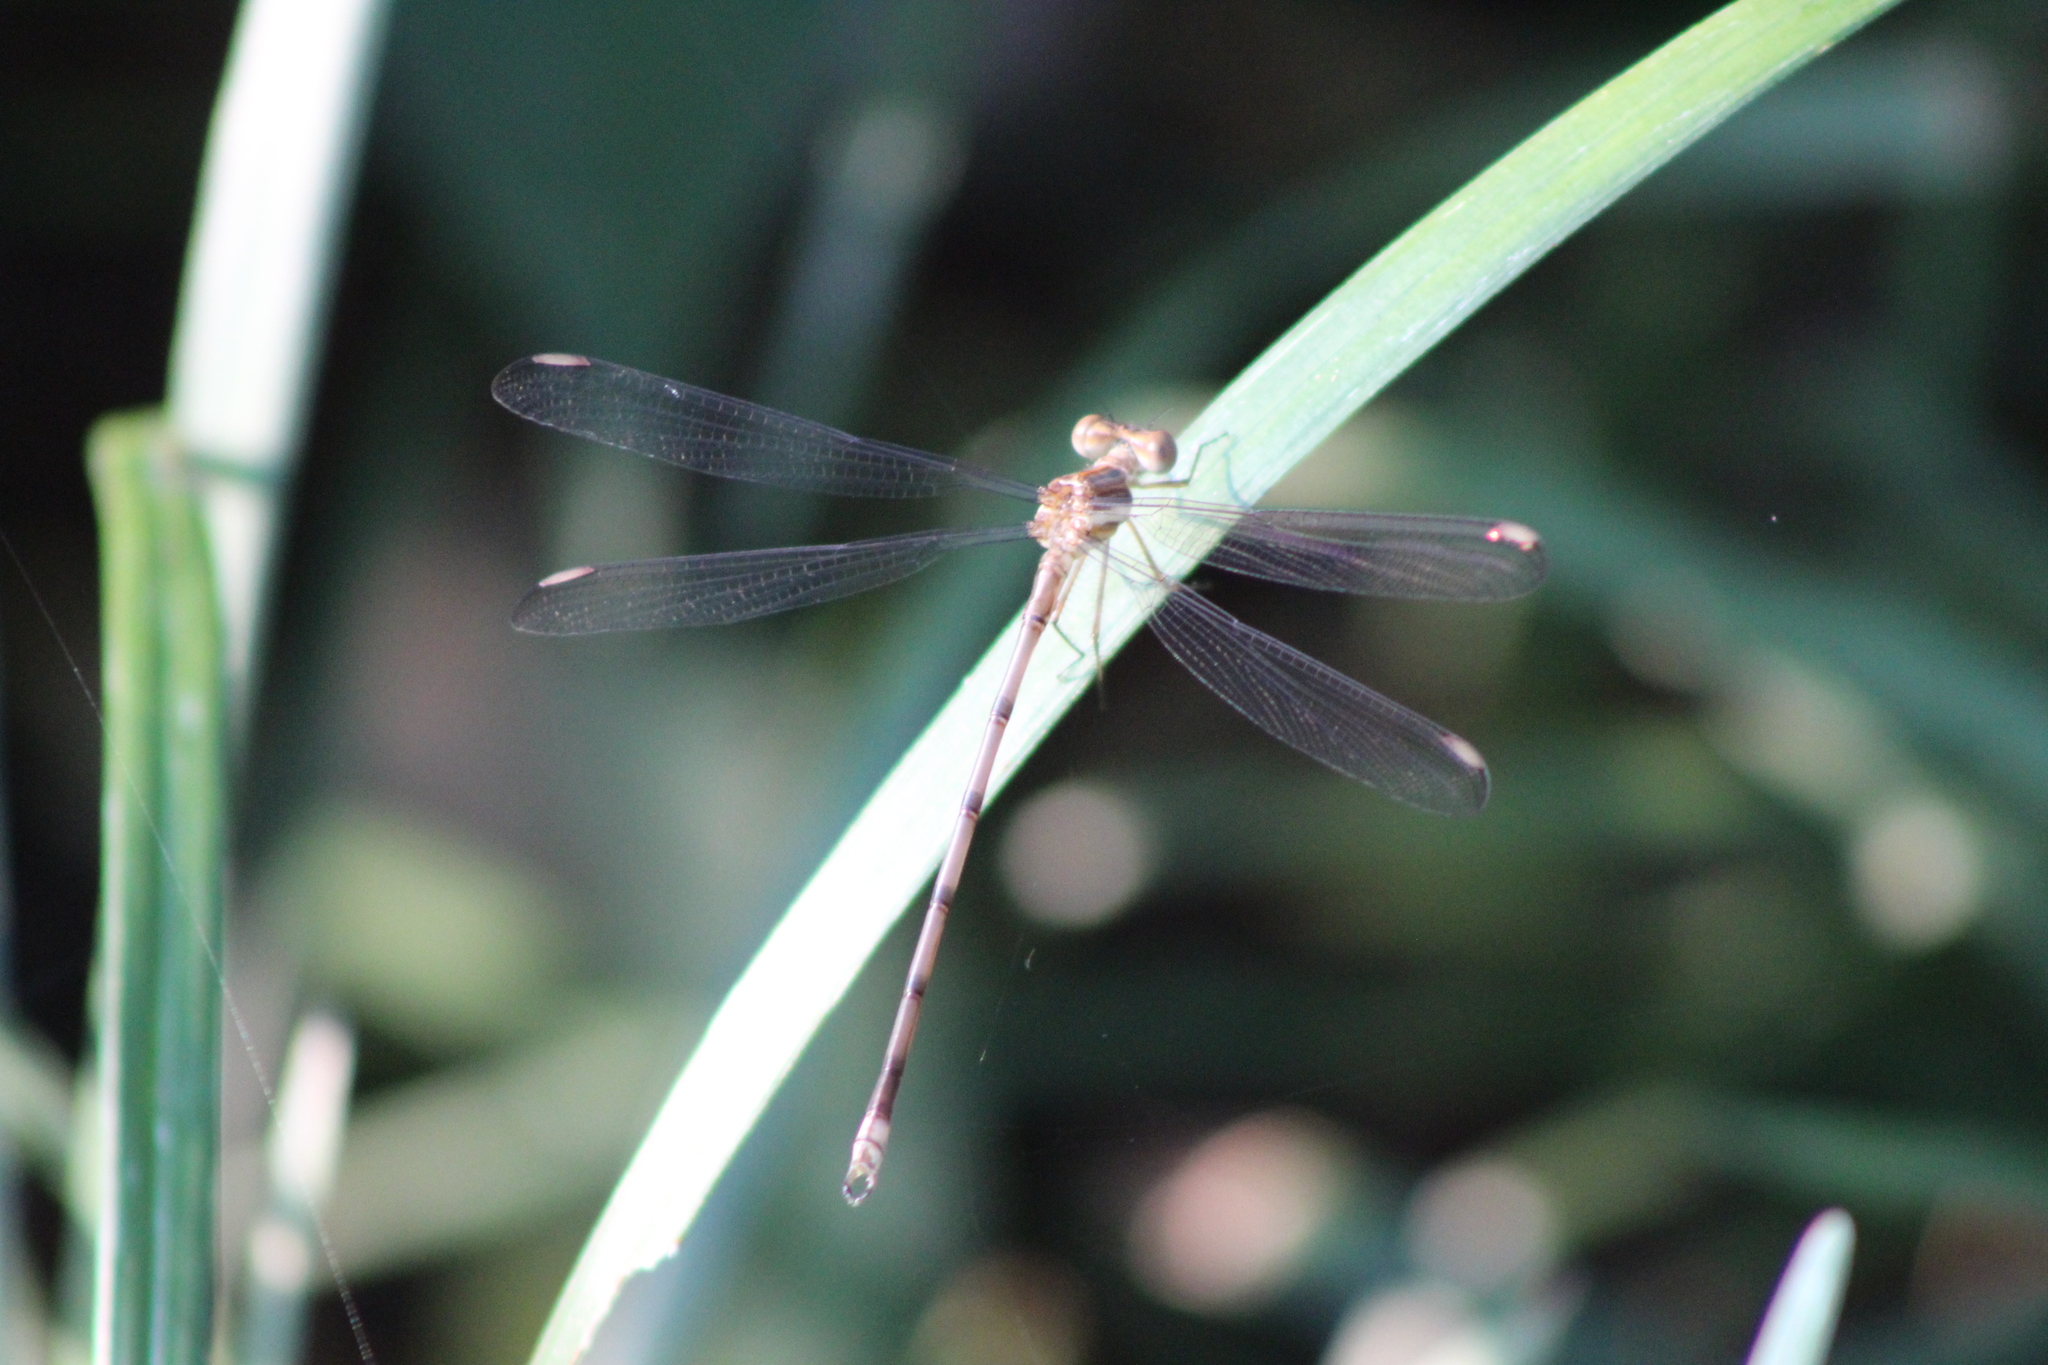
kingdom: Animalia
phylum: Arthropoda
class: Insecta
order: Odonata
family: Lestidae
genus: Archilestes
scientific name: Archilestes grandis
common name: Great spreadwing
